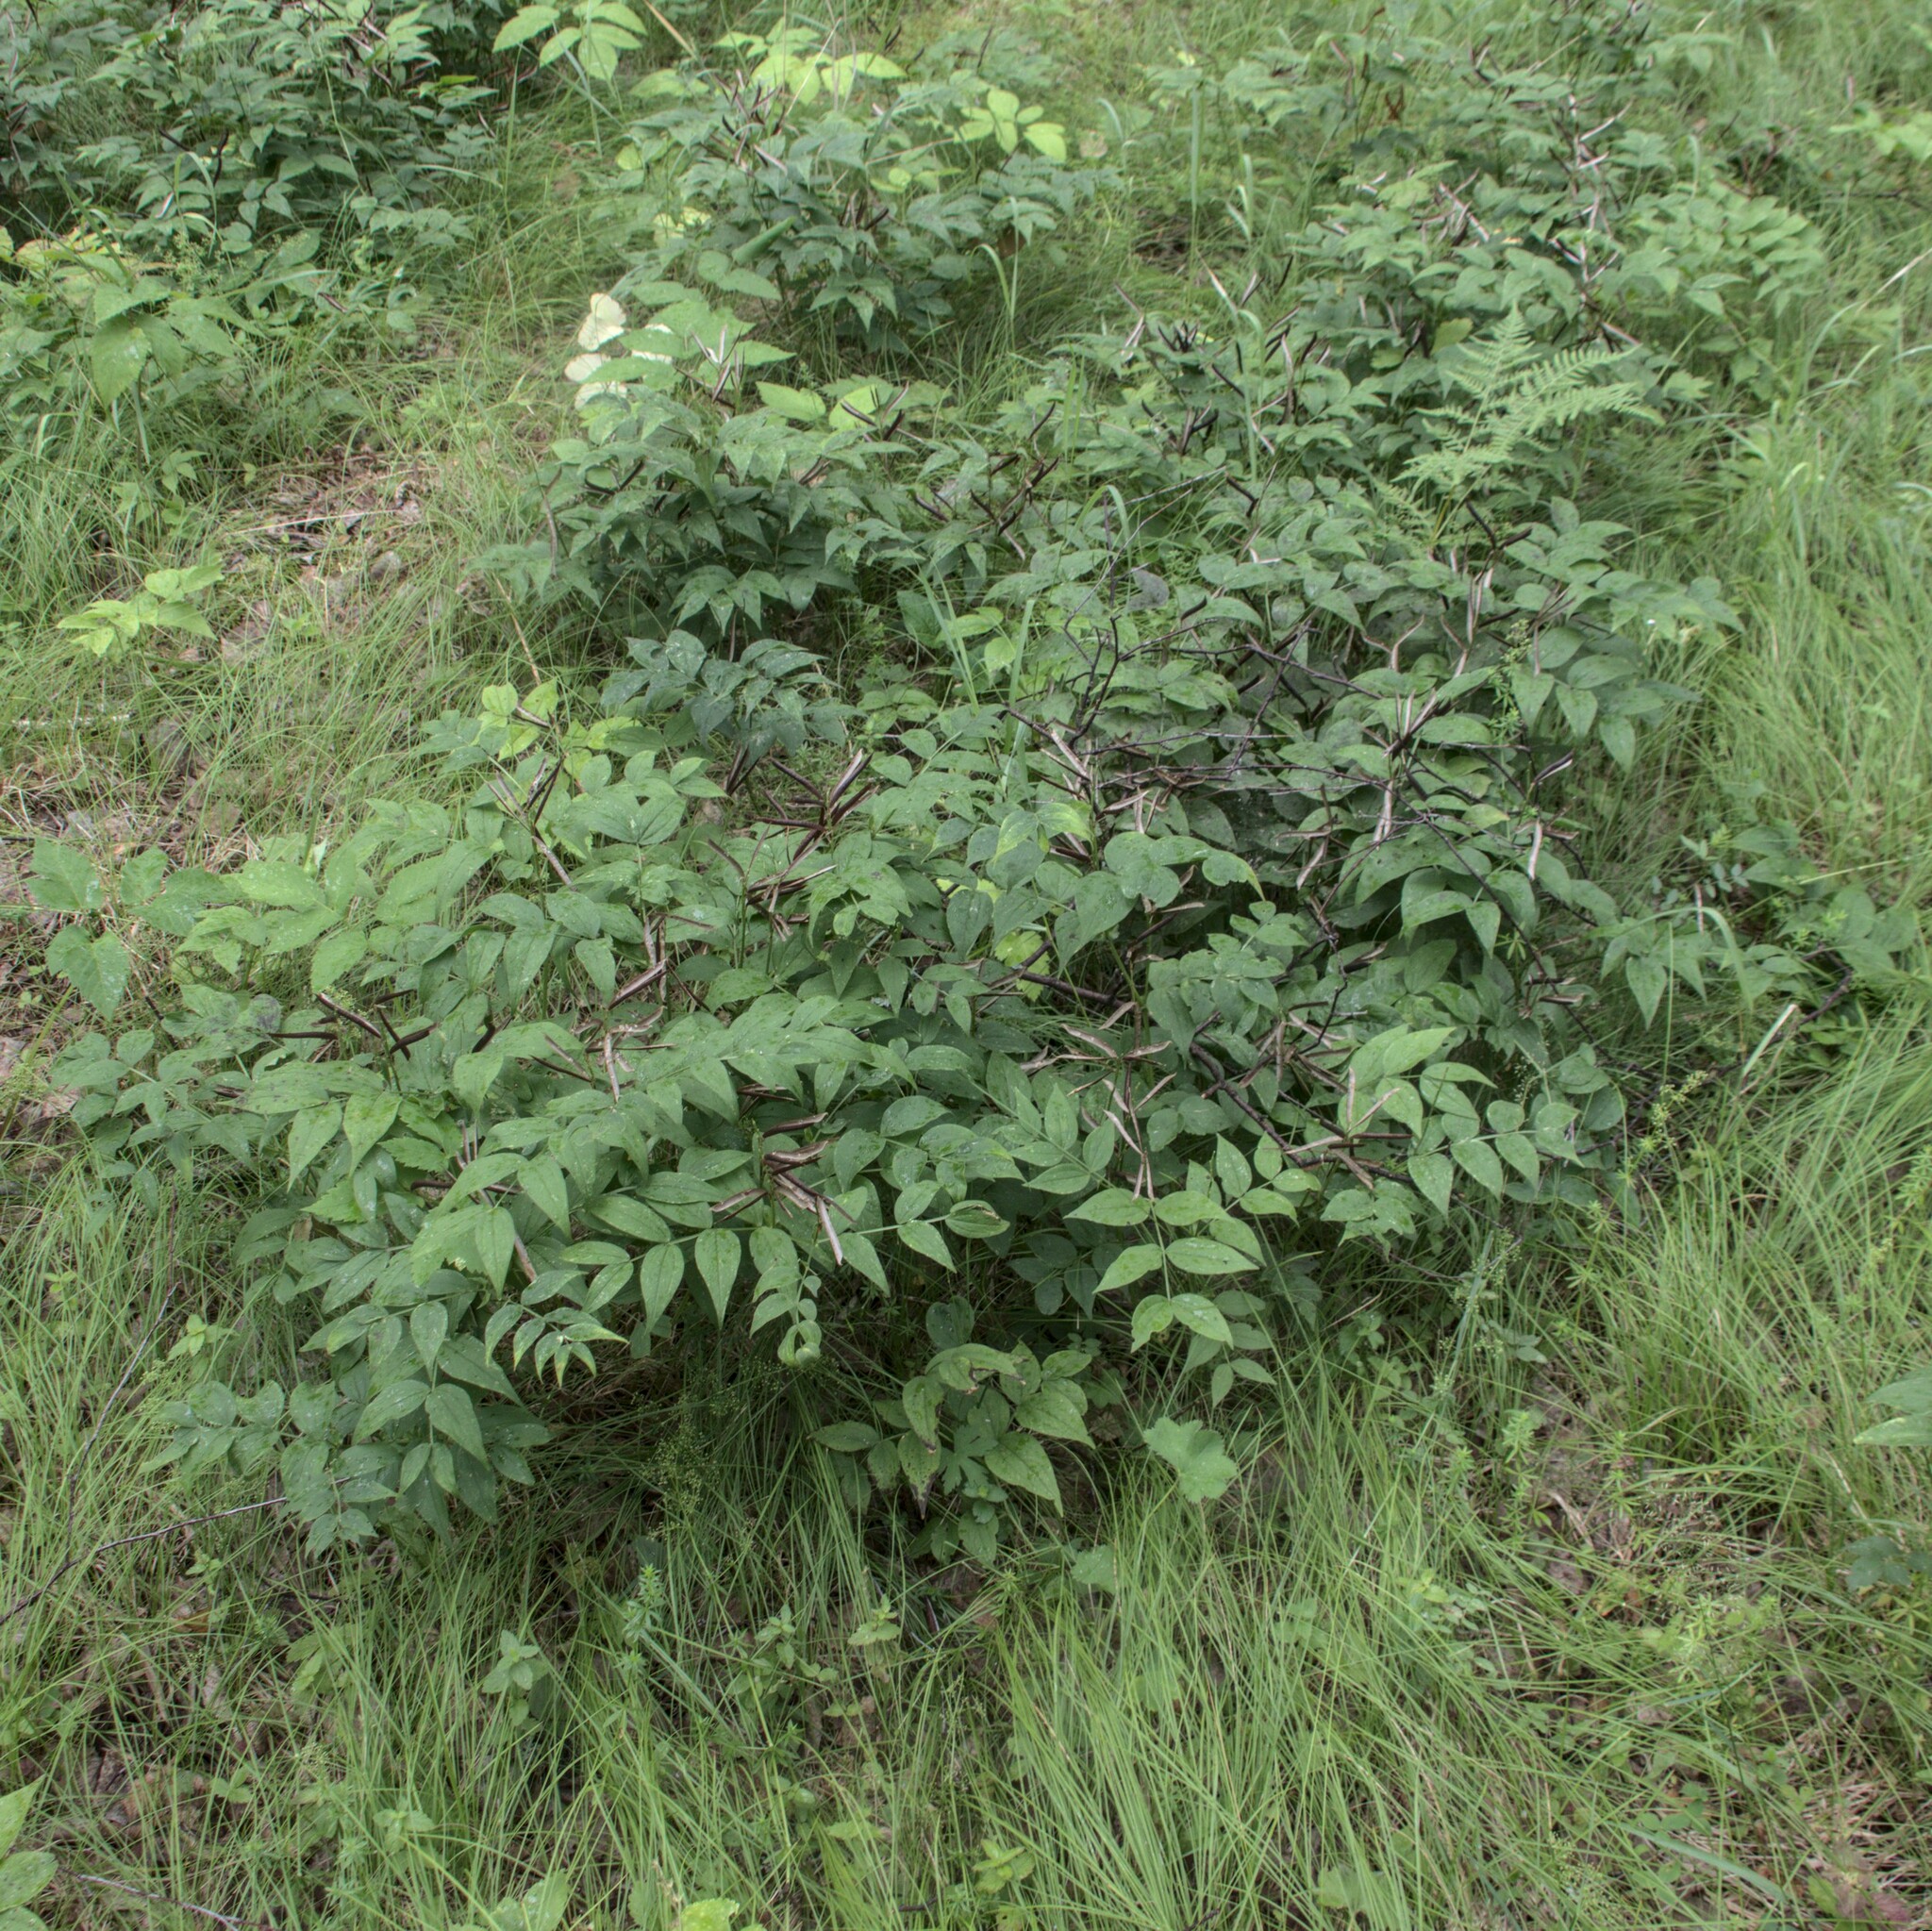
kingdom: Plantae
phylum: Tracheophyta
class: Magnoliopsida
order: Fabales
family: Fabaceae
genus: Lathyrus
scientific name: Lathyrus vernus
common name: Spring pea
